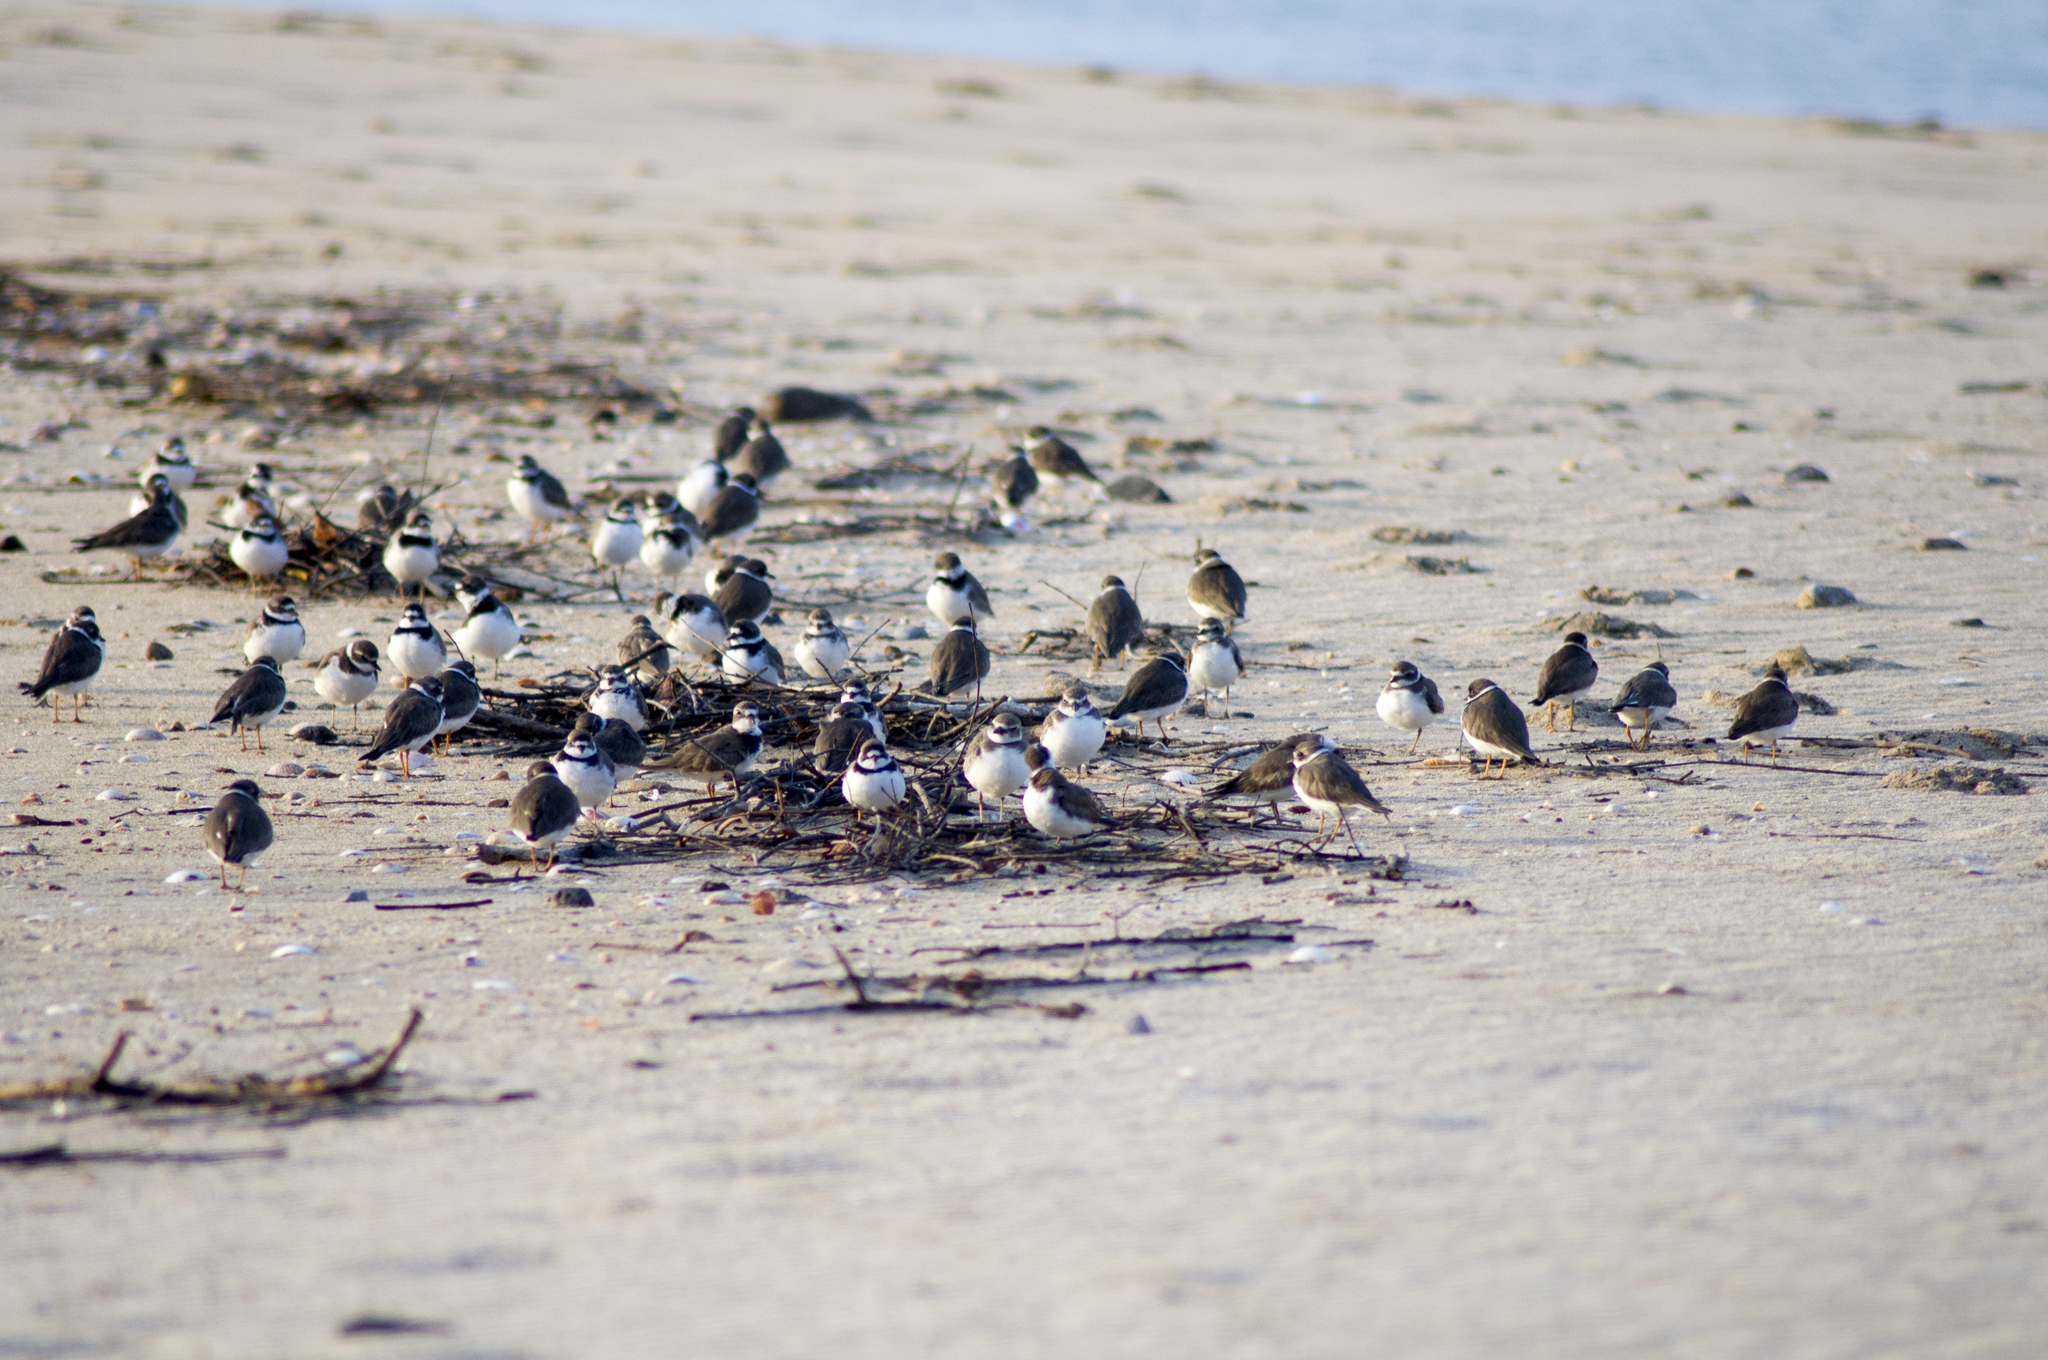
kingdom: Animalia
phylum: Chordata
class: Aves
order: Charadriiformes
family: Charadriidae
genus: Charadrius
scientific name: Charadrius semipalmatus
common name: Semipalmated plover
